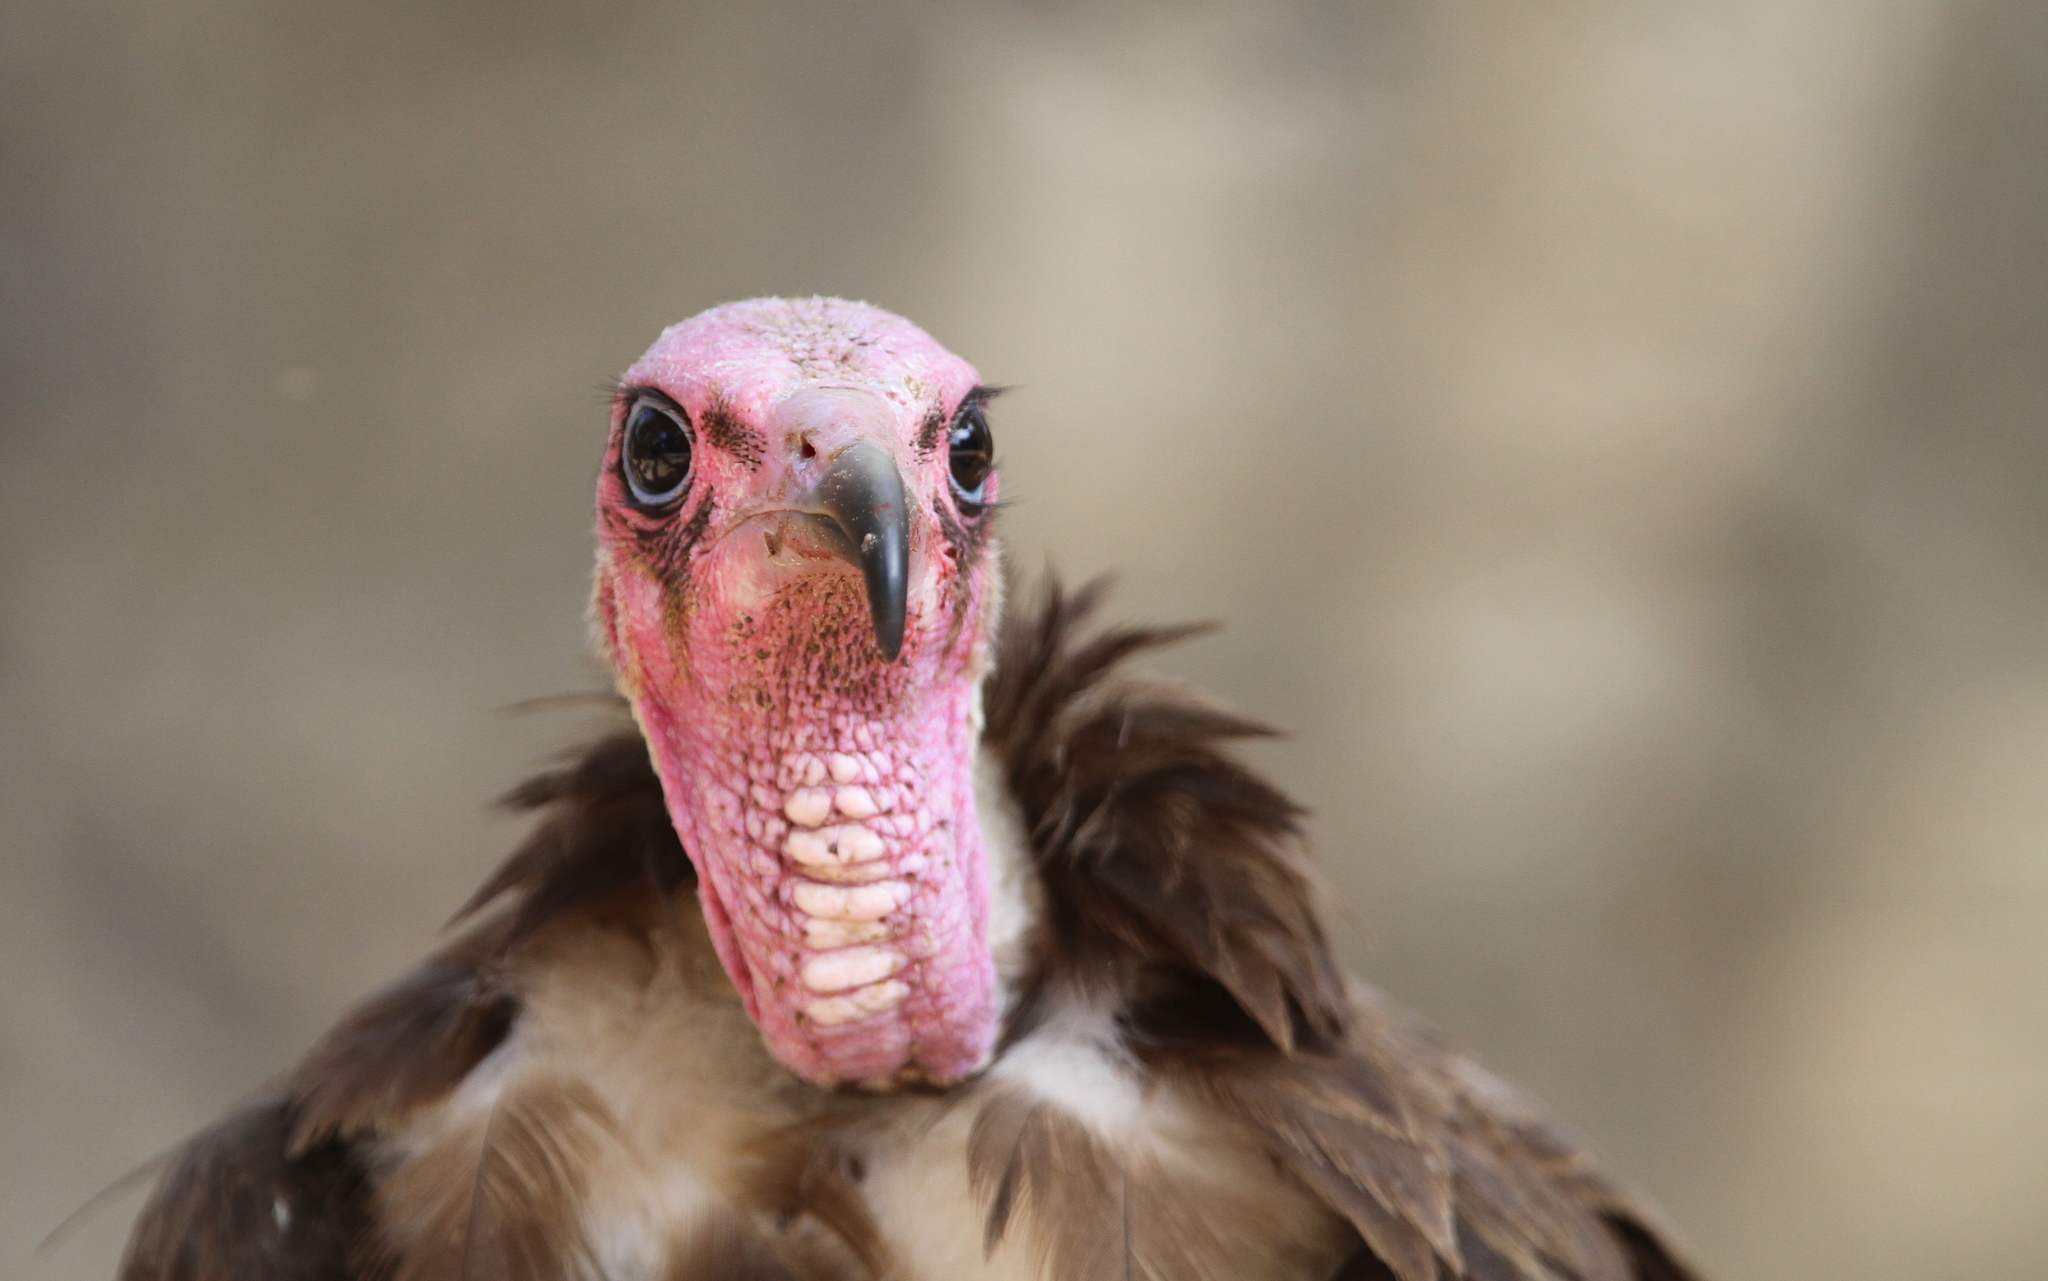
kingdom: Animalia
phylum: Chordata
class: Aves
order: Accipitriformes
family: Accipitridae
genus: Necrosyrtes
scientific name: Necrosyrtes monachus
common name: Hooded vulture
